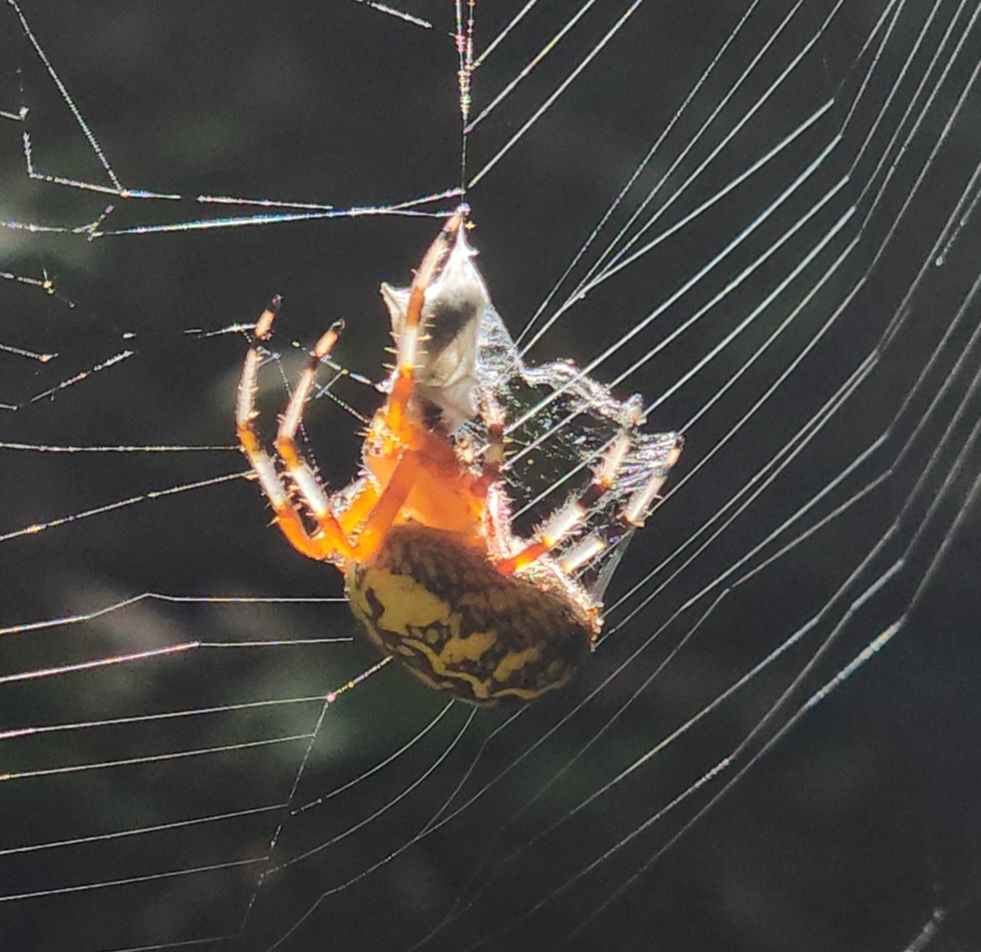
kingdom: Animalia
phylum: Arthropoda
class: Arachnida
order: Araneae
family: Araneidae
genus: Araneus
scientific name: Araneus marmoreus
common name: Marbled orbweaver
